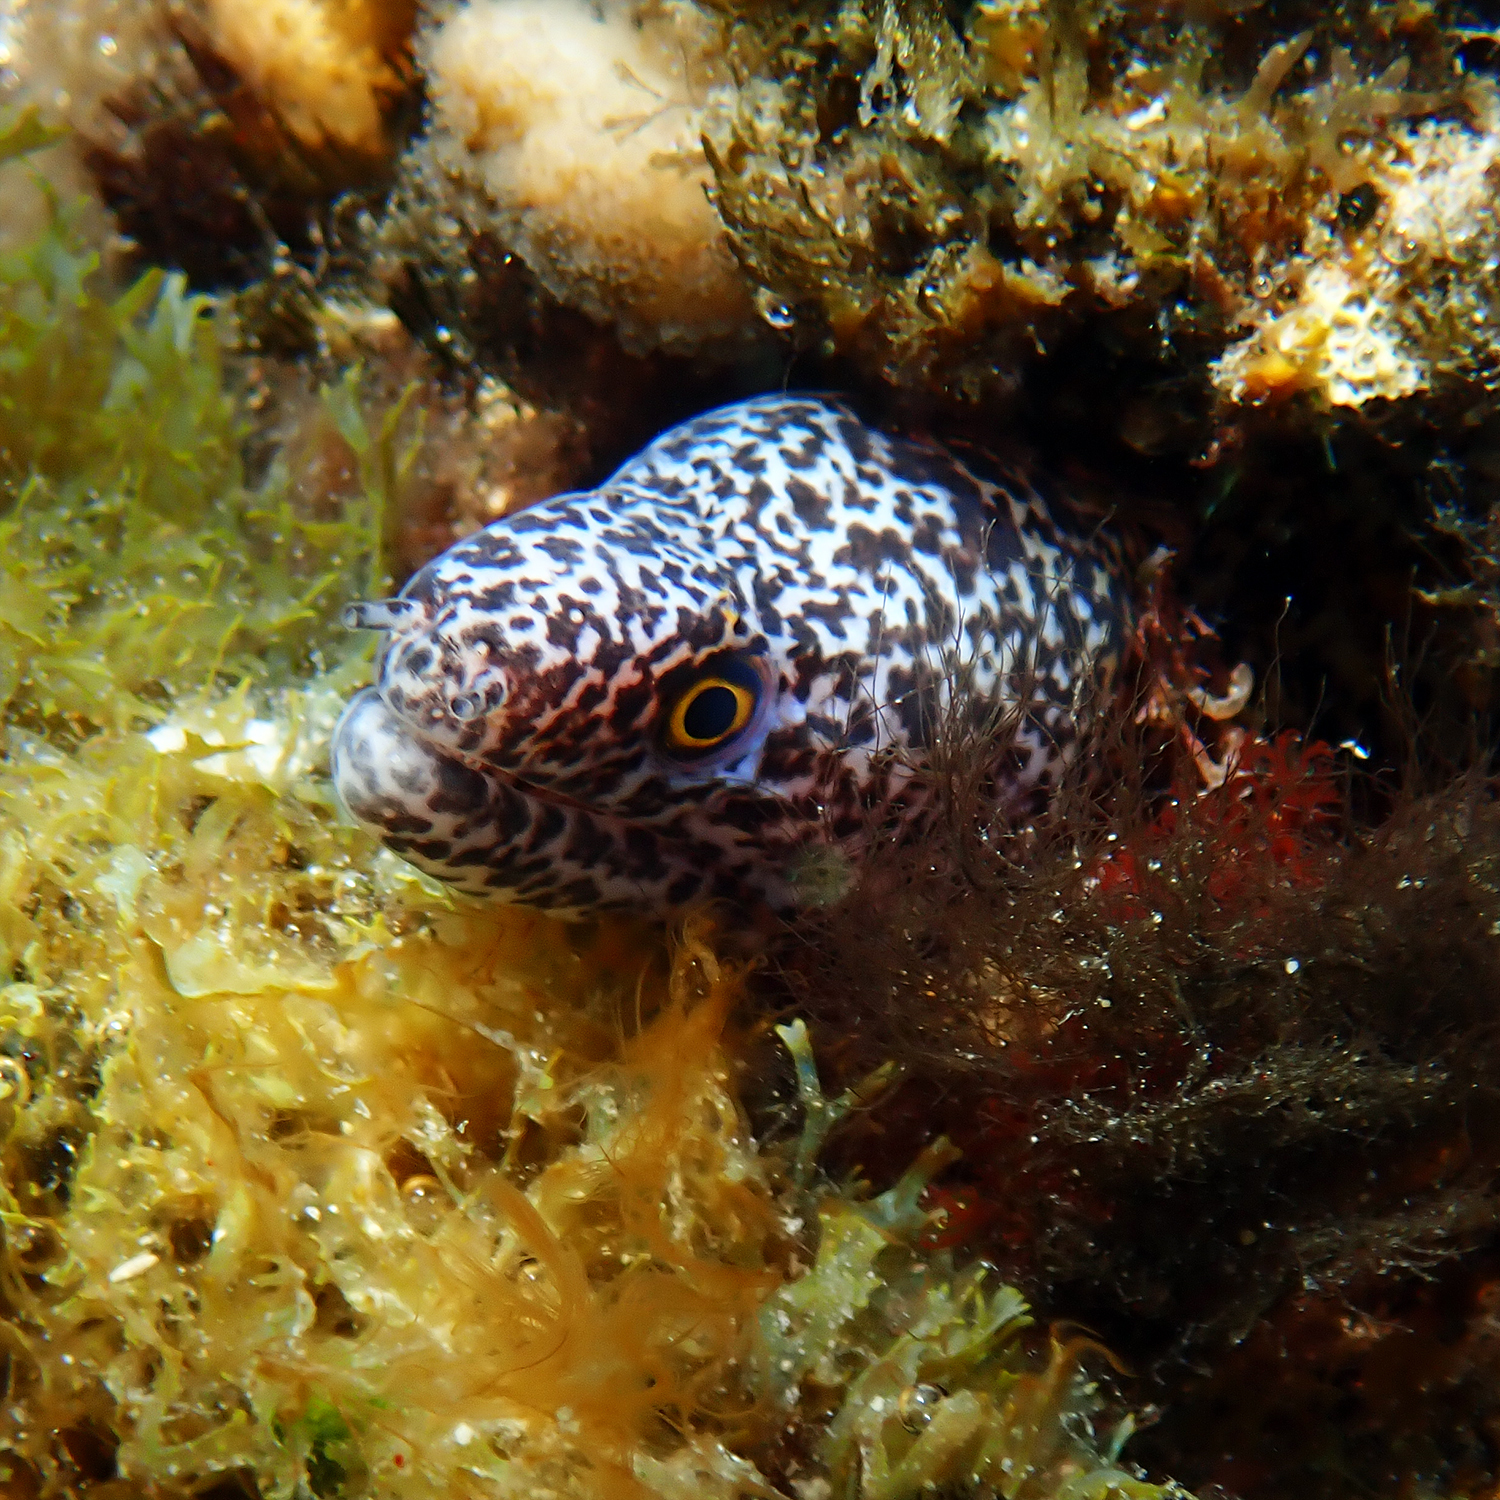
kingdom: Animalia
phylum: Chordata
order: Anguilliformes
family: Muraenidae
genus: Gymnothorax
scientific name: Gymnothorax annasona
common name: Lord howe island moray
